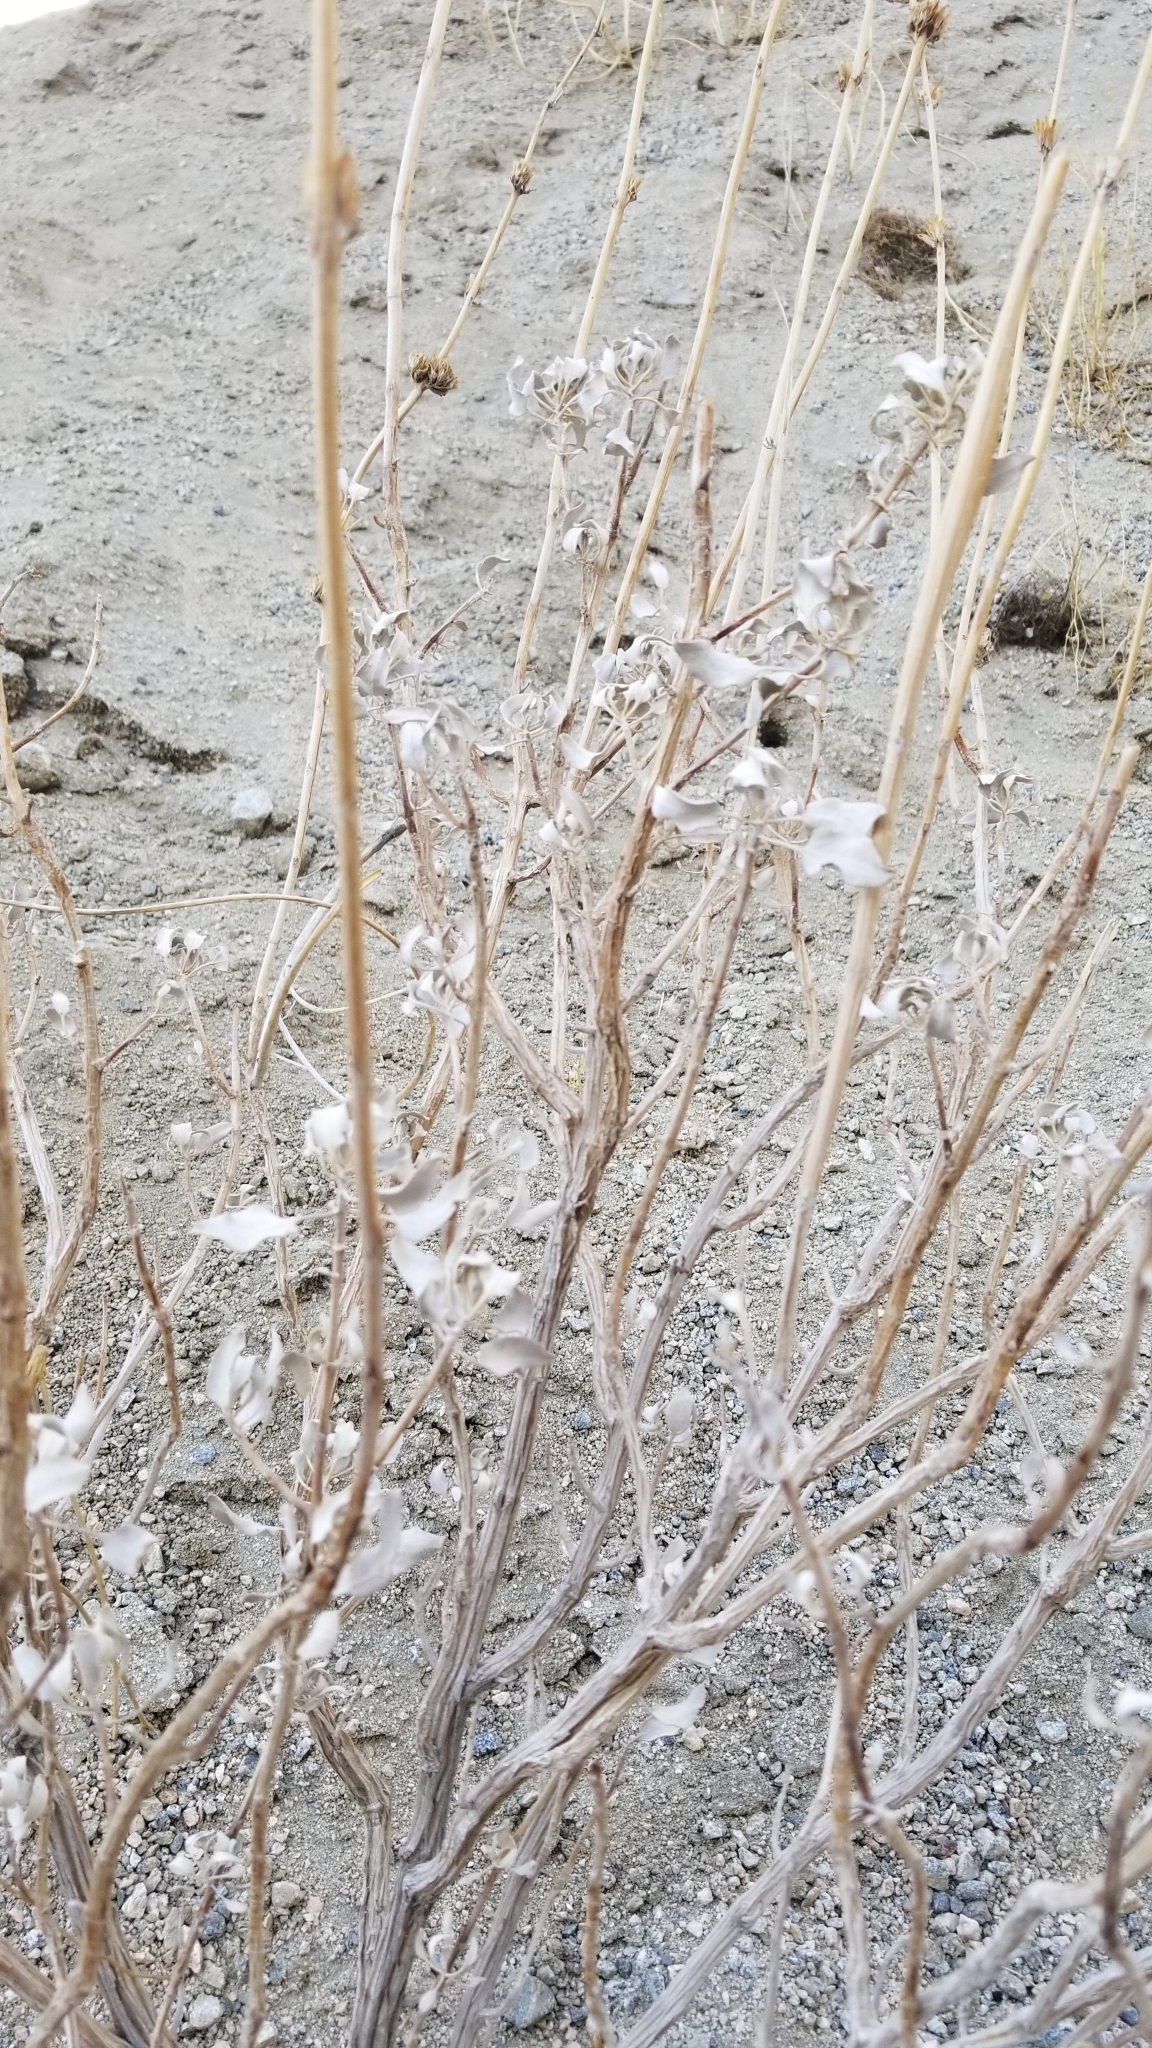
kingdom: Plantae
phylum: Tracheophyta
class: Magnoliopsida
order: Lamiales
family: Lamiaceae
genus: Salvia
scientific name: Salvia vaseyi
